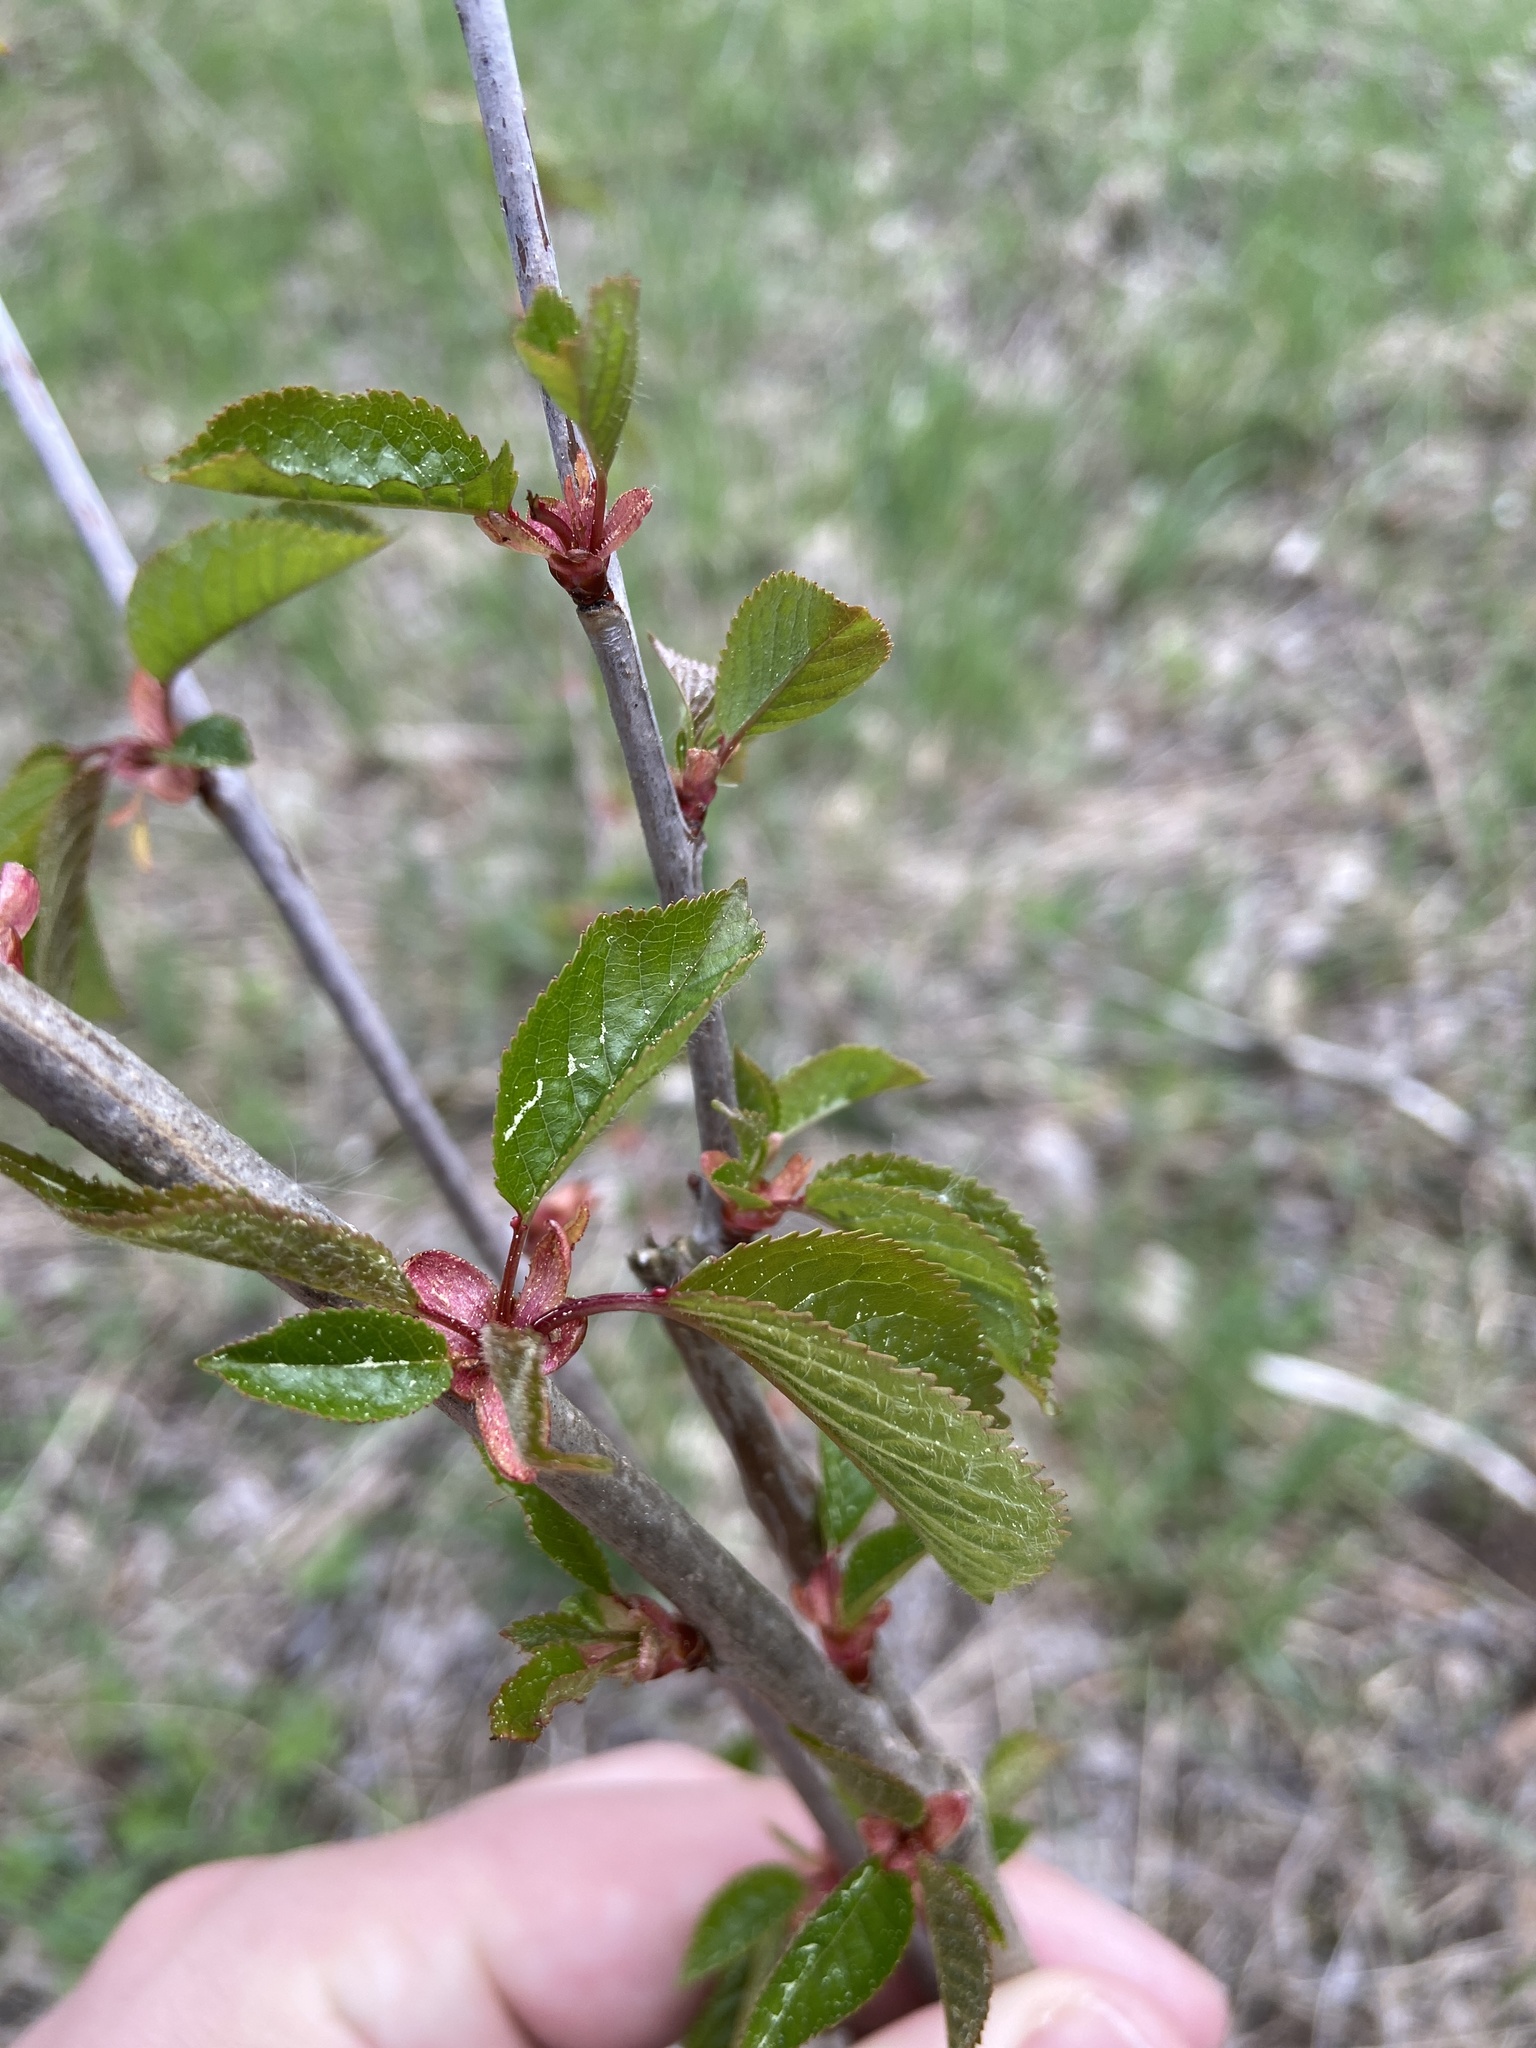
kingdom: Plantae
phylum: Tracheophyta
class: Magnoliopsida
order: Rosales
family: Rosaceae
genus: Prunus
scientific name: Prunus avium
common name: Sweet cherry
